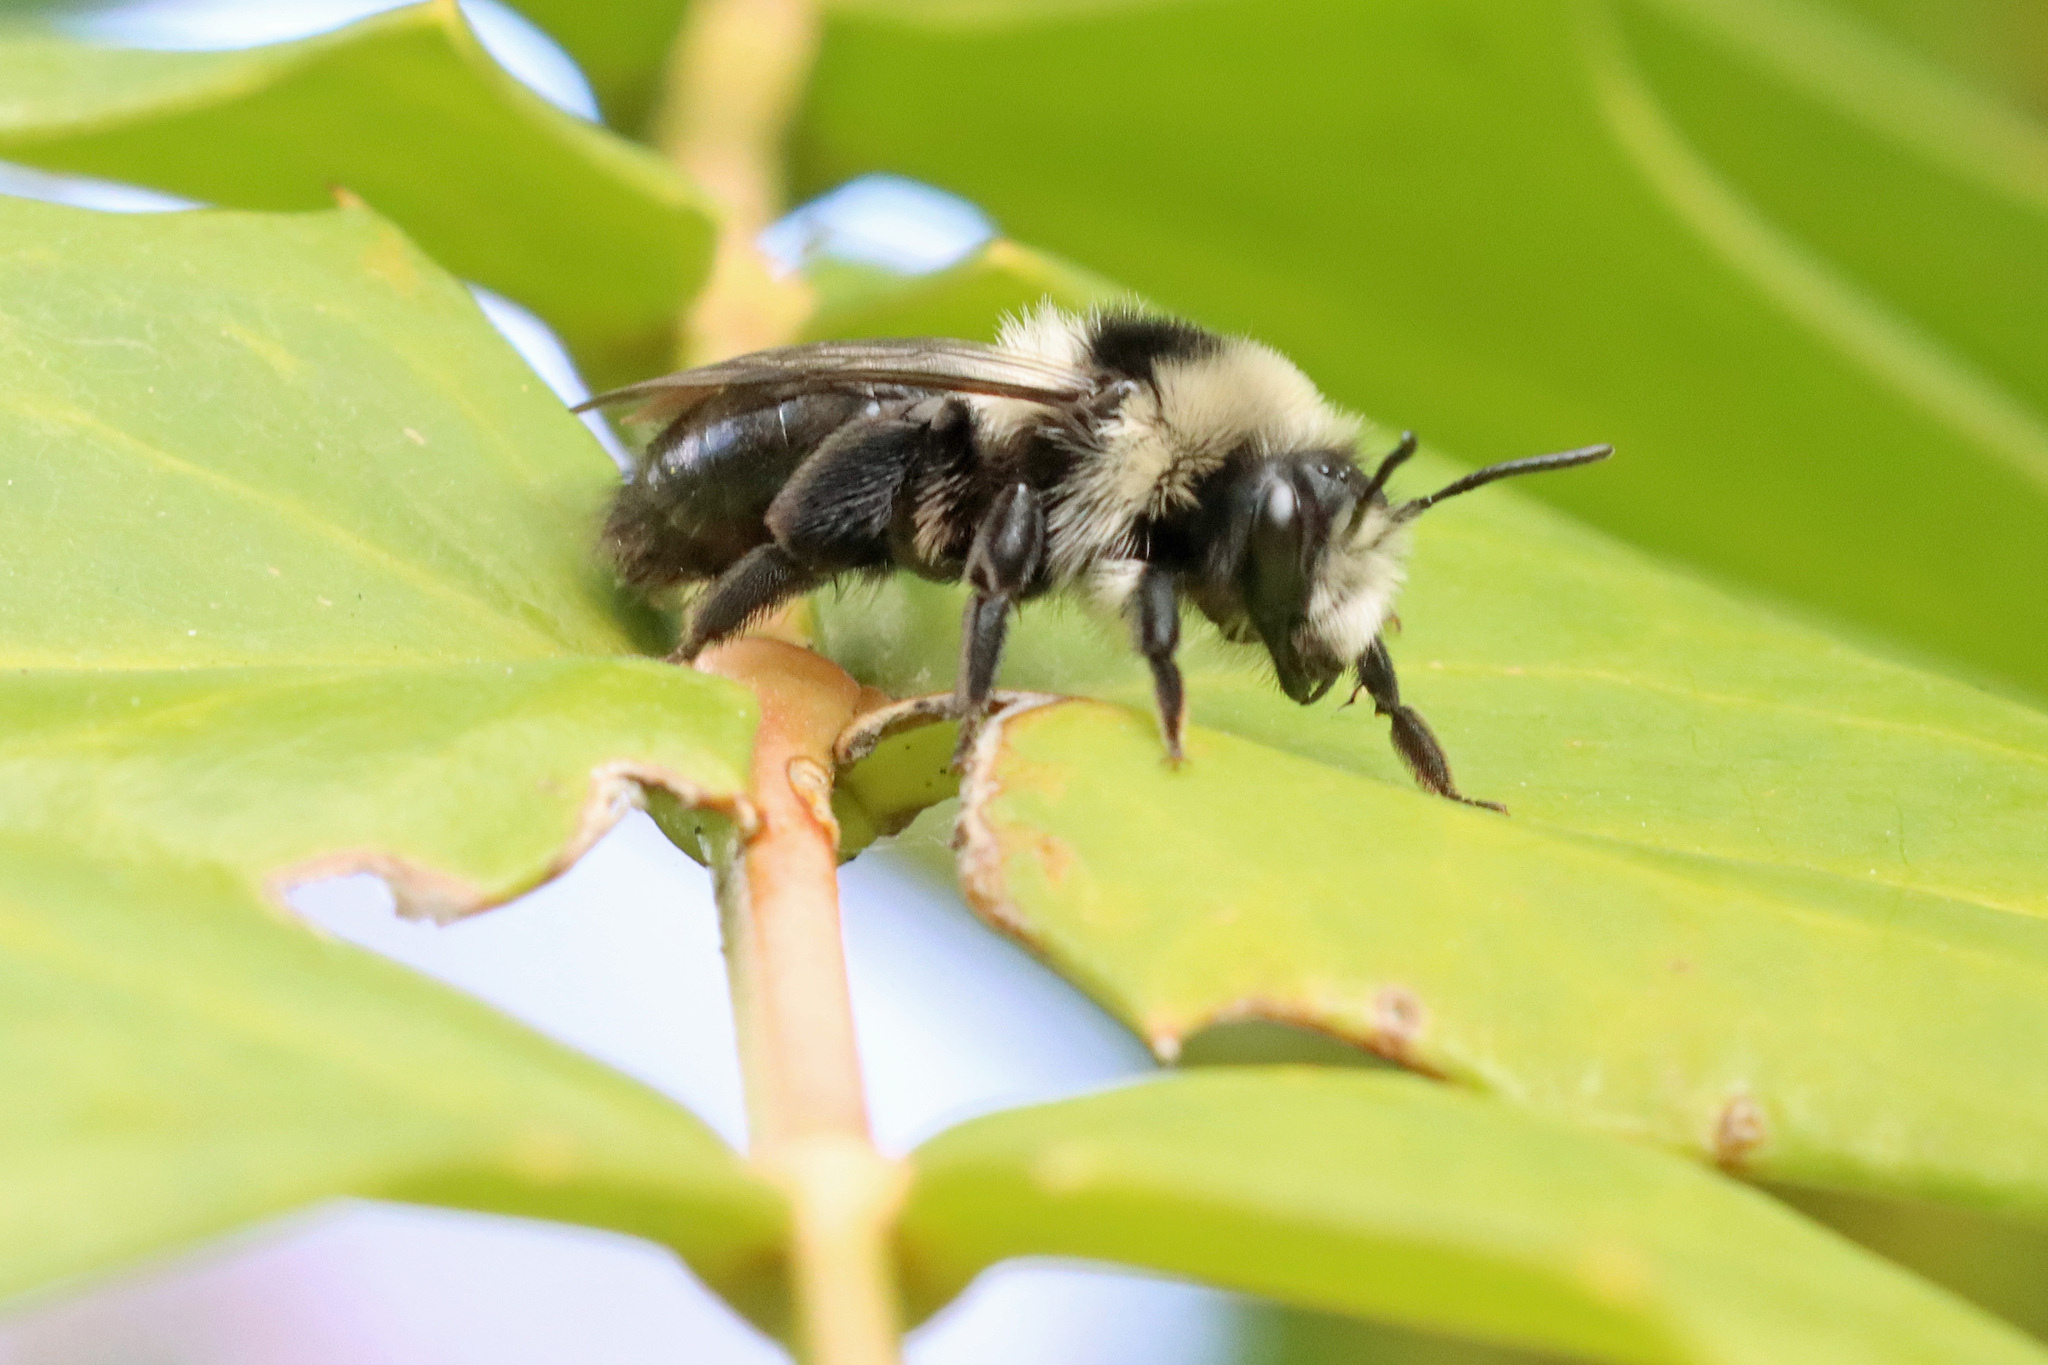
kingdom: Animalia
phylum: Arthropoda
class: Insecta
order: Hymenoptera
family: Andrenidae
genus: Andrena
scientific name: Andrena cineraria
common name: Ashy mining bee
